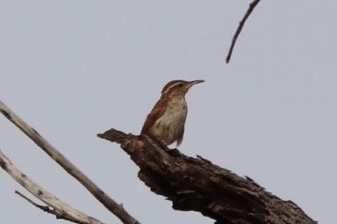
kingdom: Animalia
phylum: Chordata
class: Aves
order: Passeriformes
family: Troglodytidae
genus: Thryothorus
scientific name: Thryothorus ludovicianus
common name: Carolina wren
